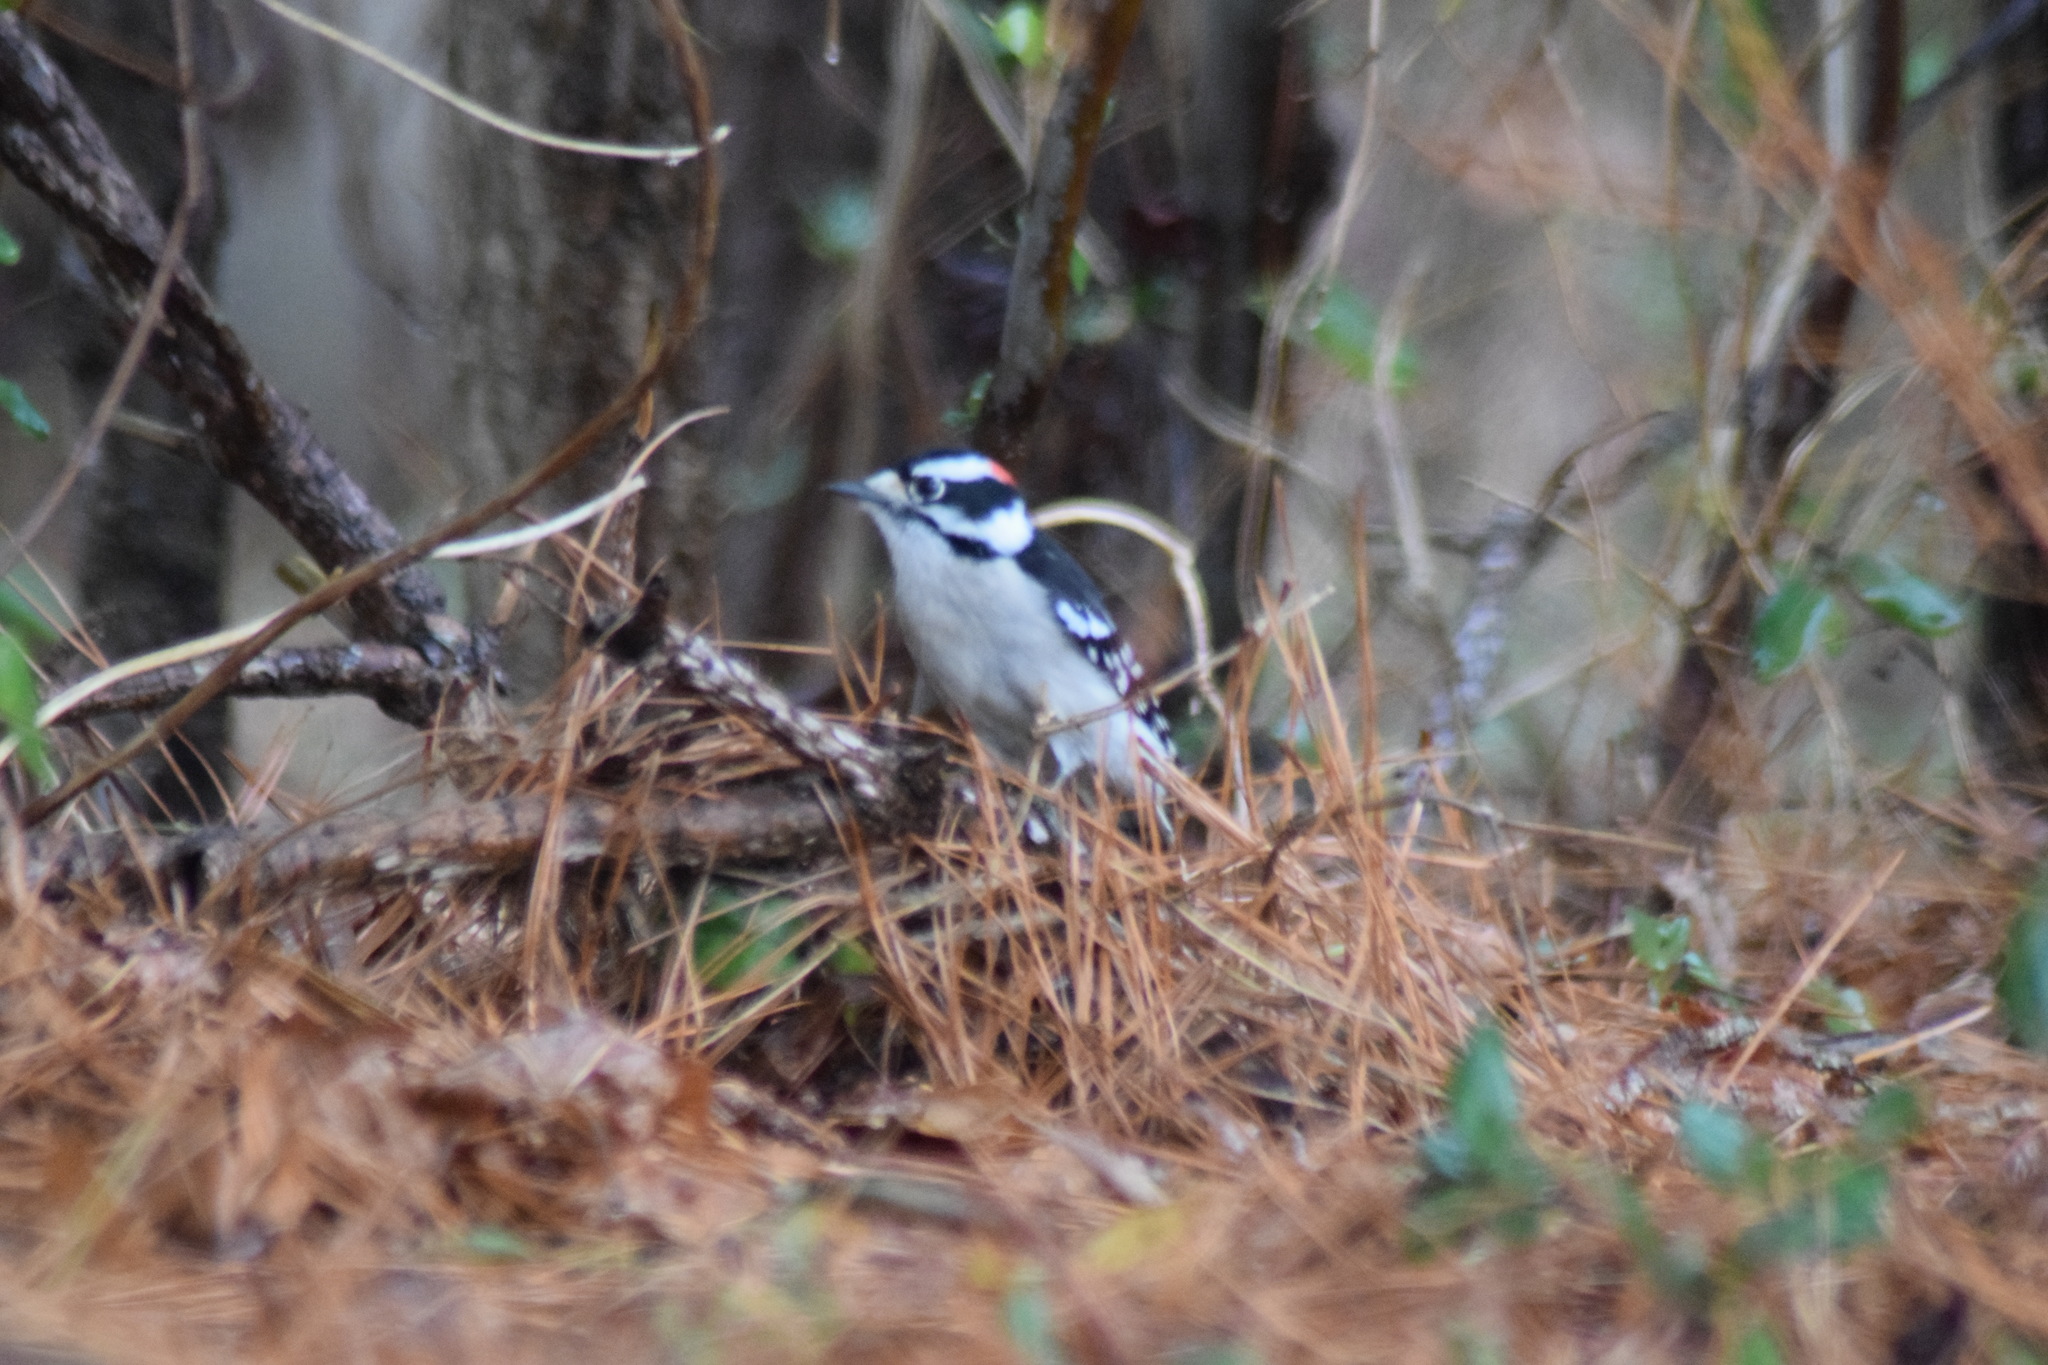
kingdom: Animalia
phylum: Chordata
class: Aves
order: Piciformes
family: Picidae
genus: Dryobates
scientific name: Dryobates pubescens
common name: Downy woodpecker
